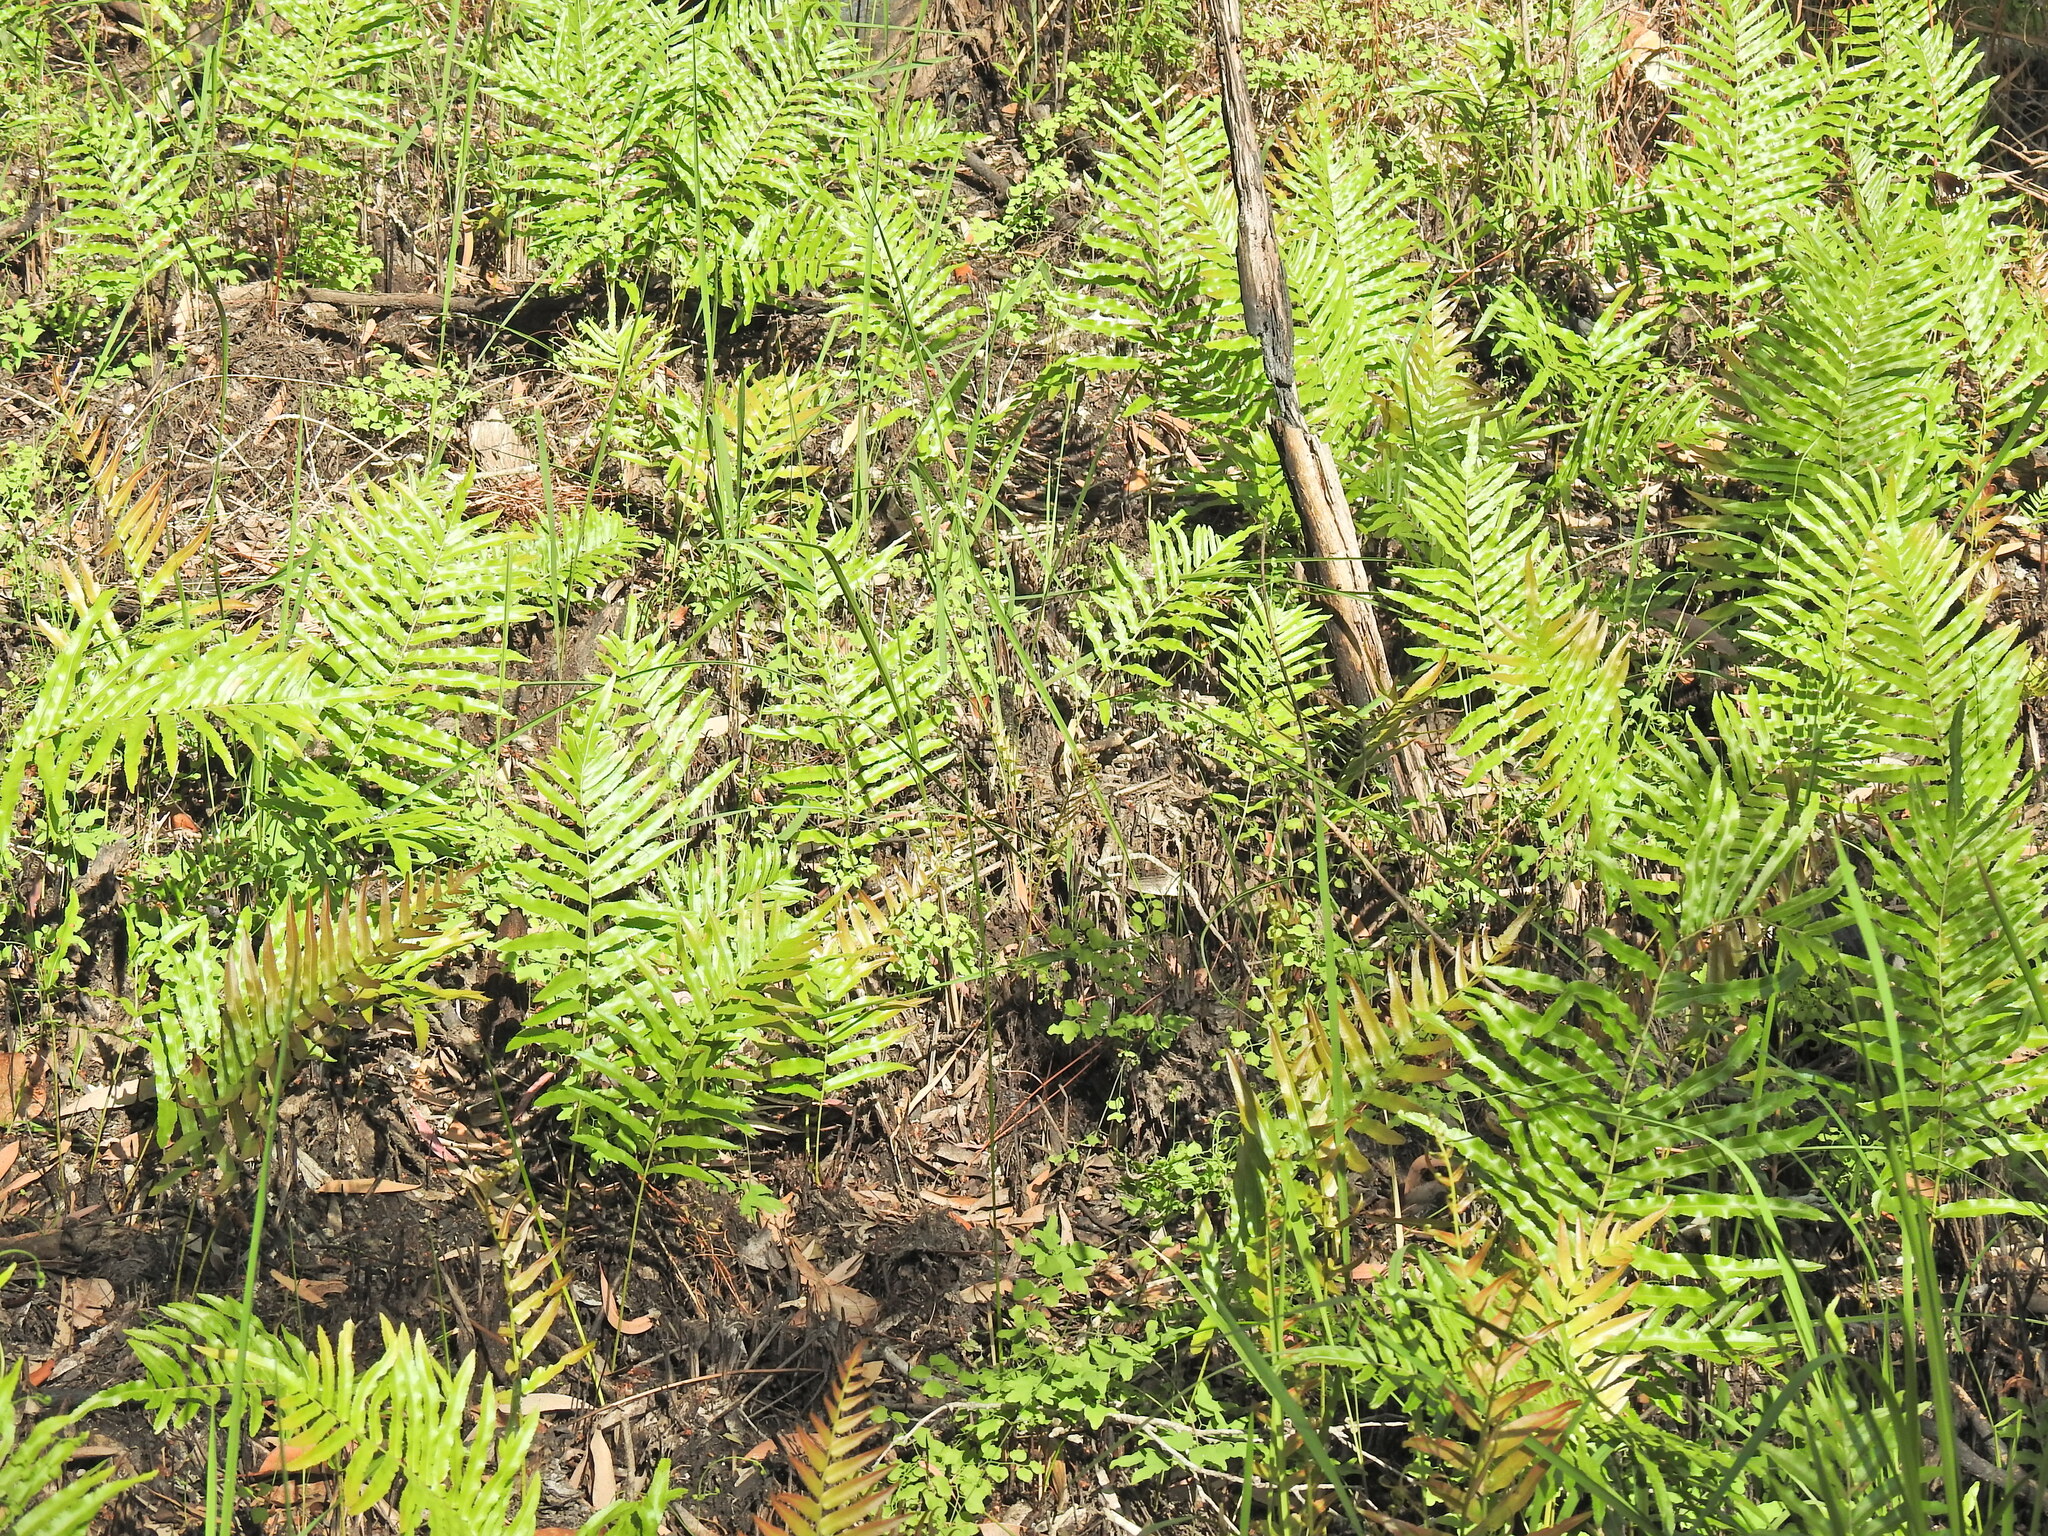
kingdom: Plantae
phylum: Tracheophyta
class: Polypodiopsida
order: Polypodiales
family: Blechnaceae
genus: Telmatoblechnum
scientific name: Telmatoblechnum indicum
